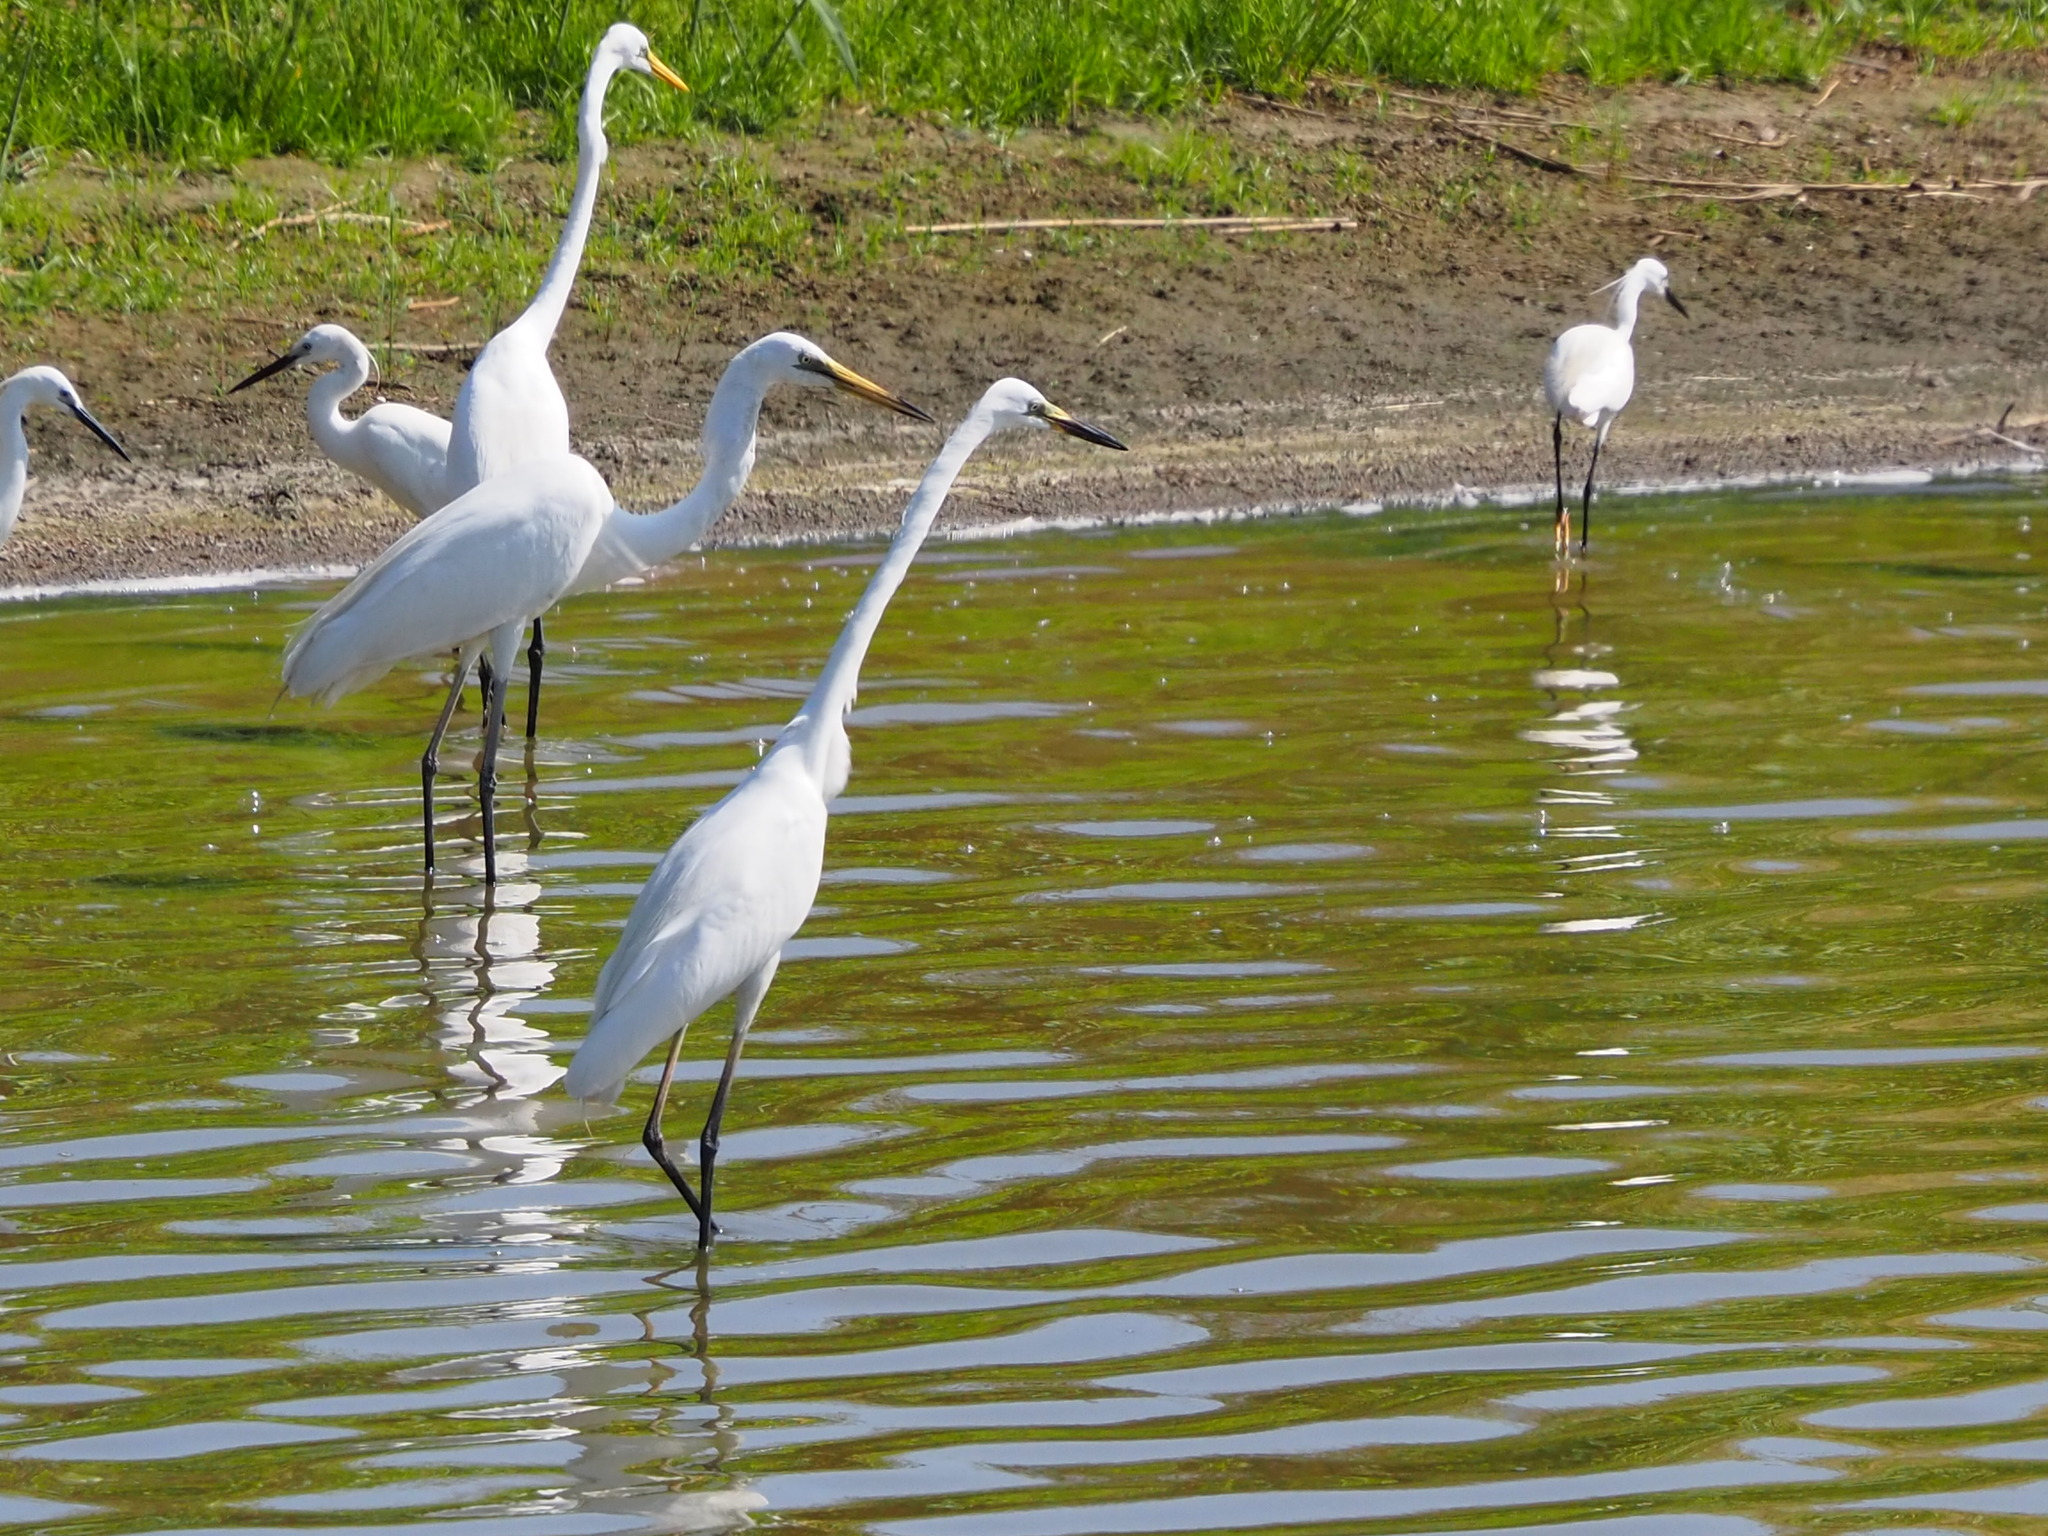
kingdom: Animalia
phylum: Chordata
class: Aves
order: Pelecaniformes
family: Ardeidae
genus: Ardea
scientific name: Ardea alba
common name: Great egret
